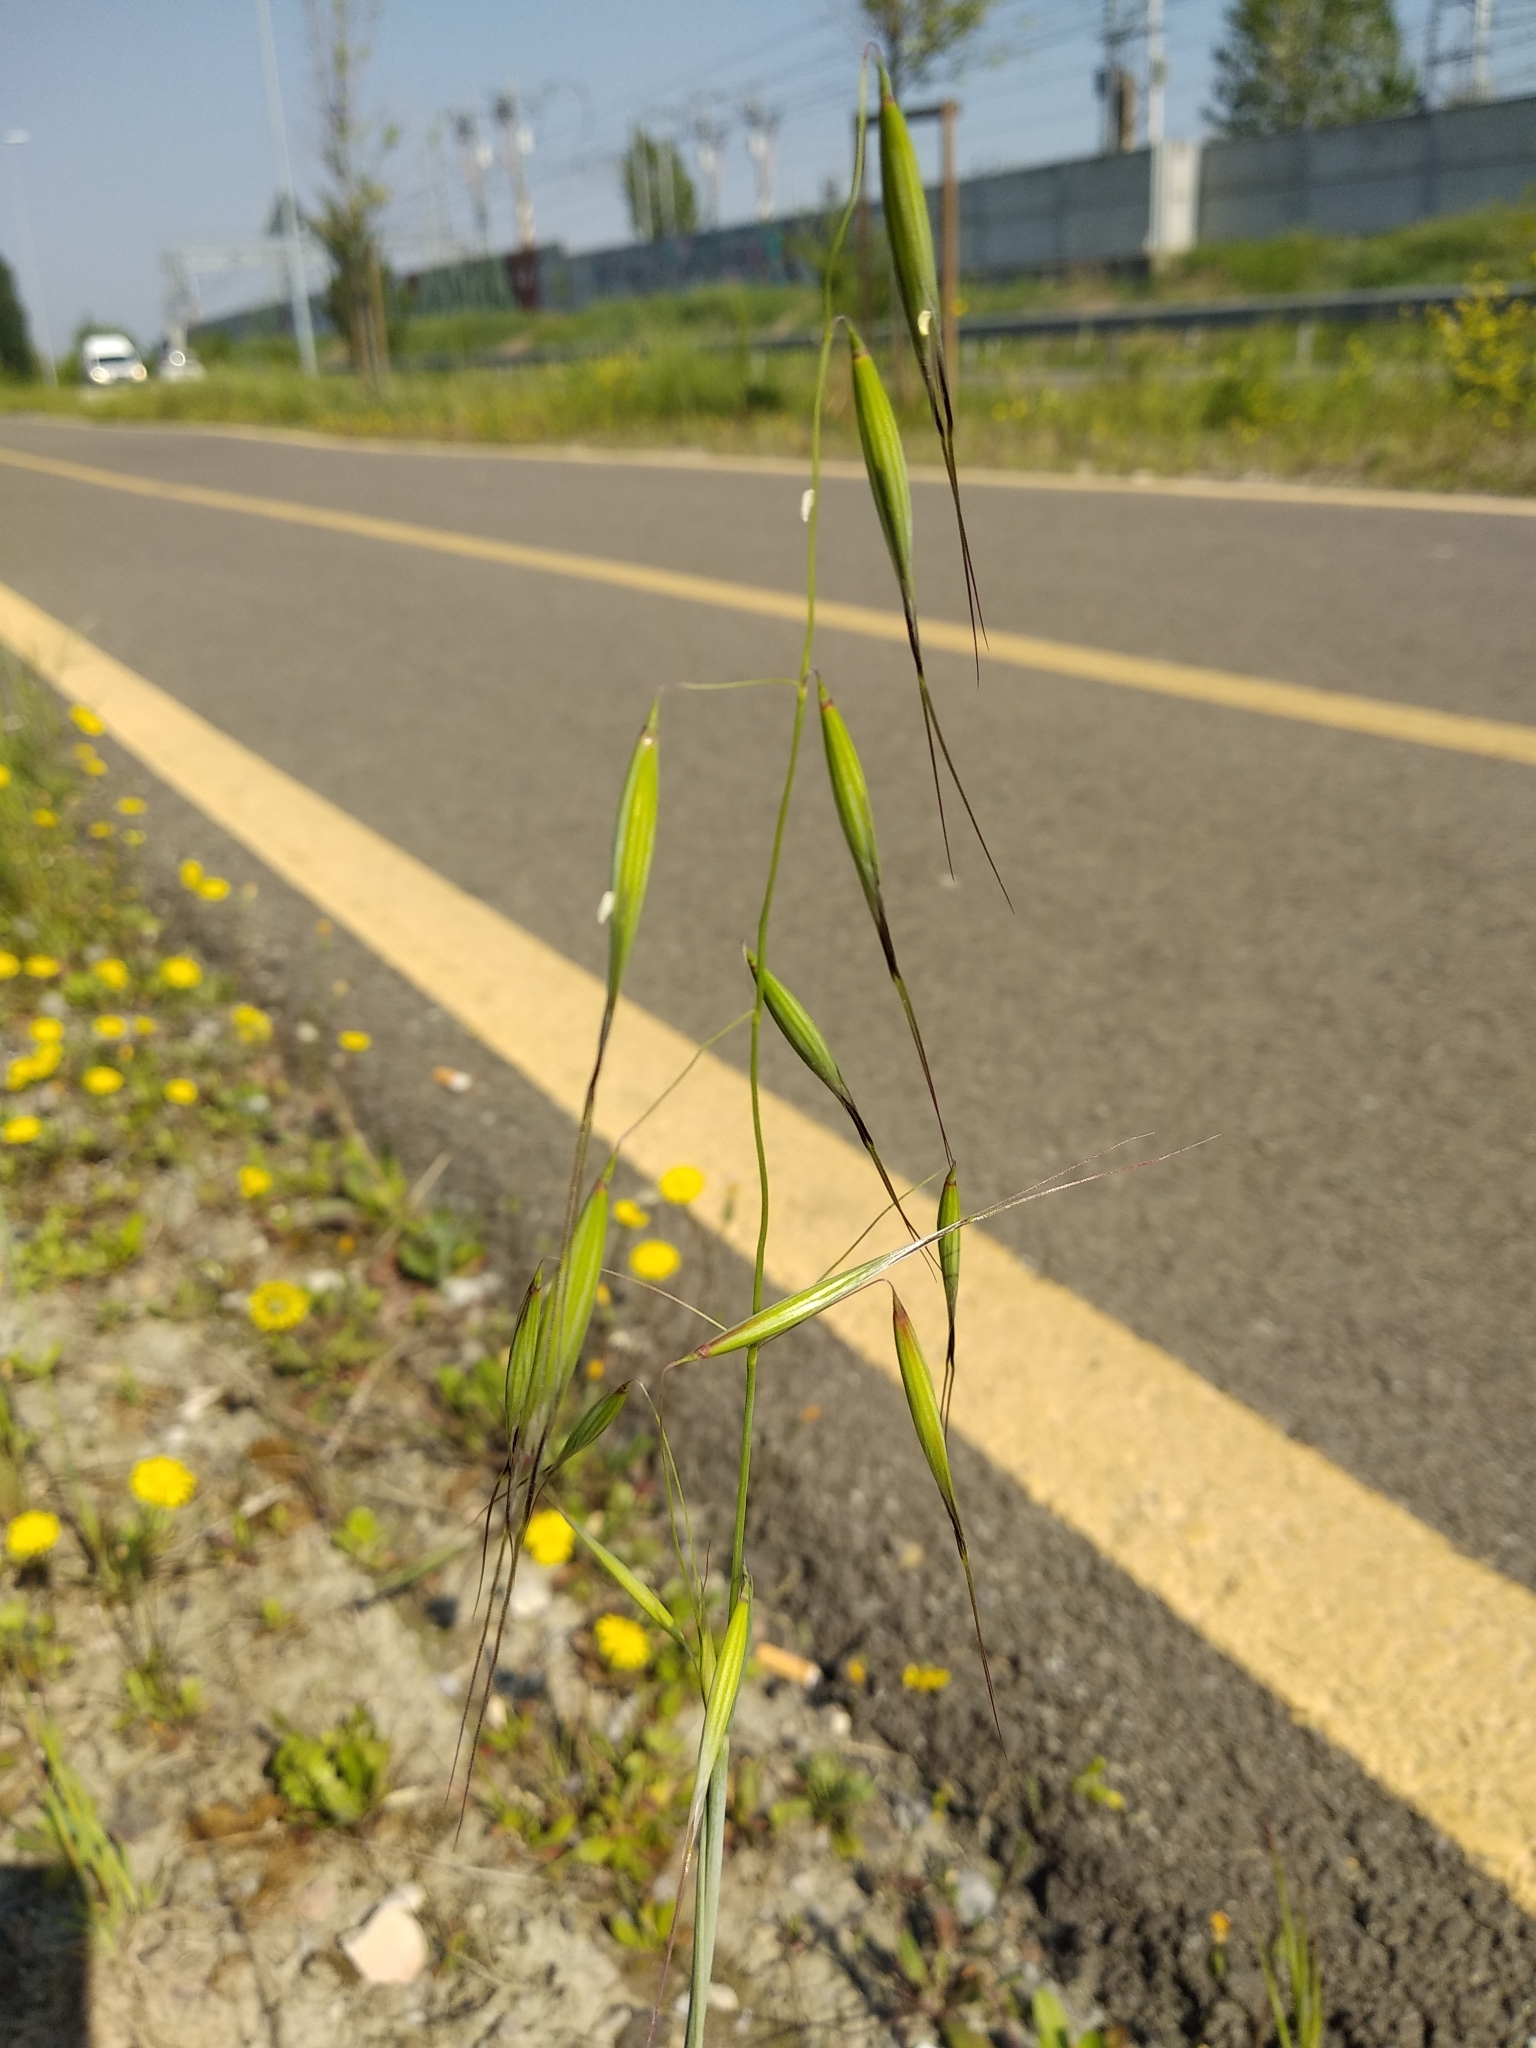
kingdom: Plantae
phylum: Tracheophyta
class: Liliopsida
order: Poales
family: Poaceae
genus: Avena
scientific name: Avena barbata
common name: Slender oat
